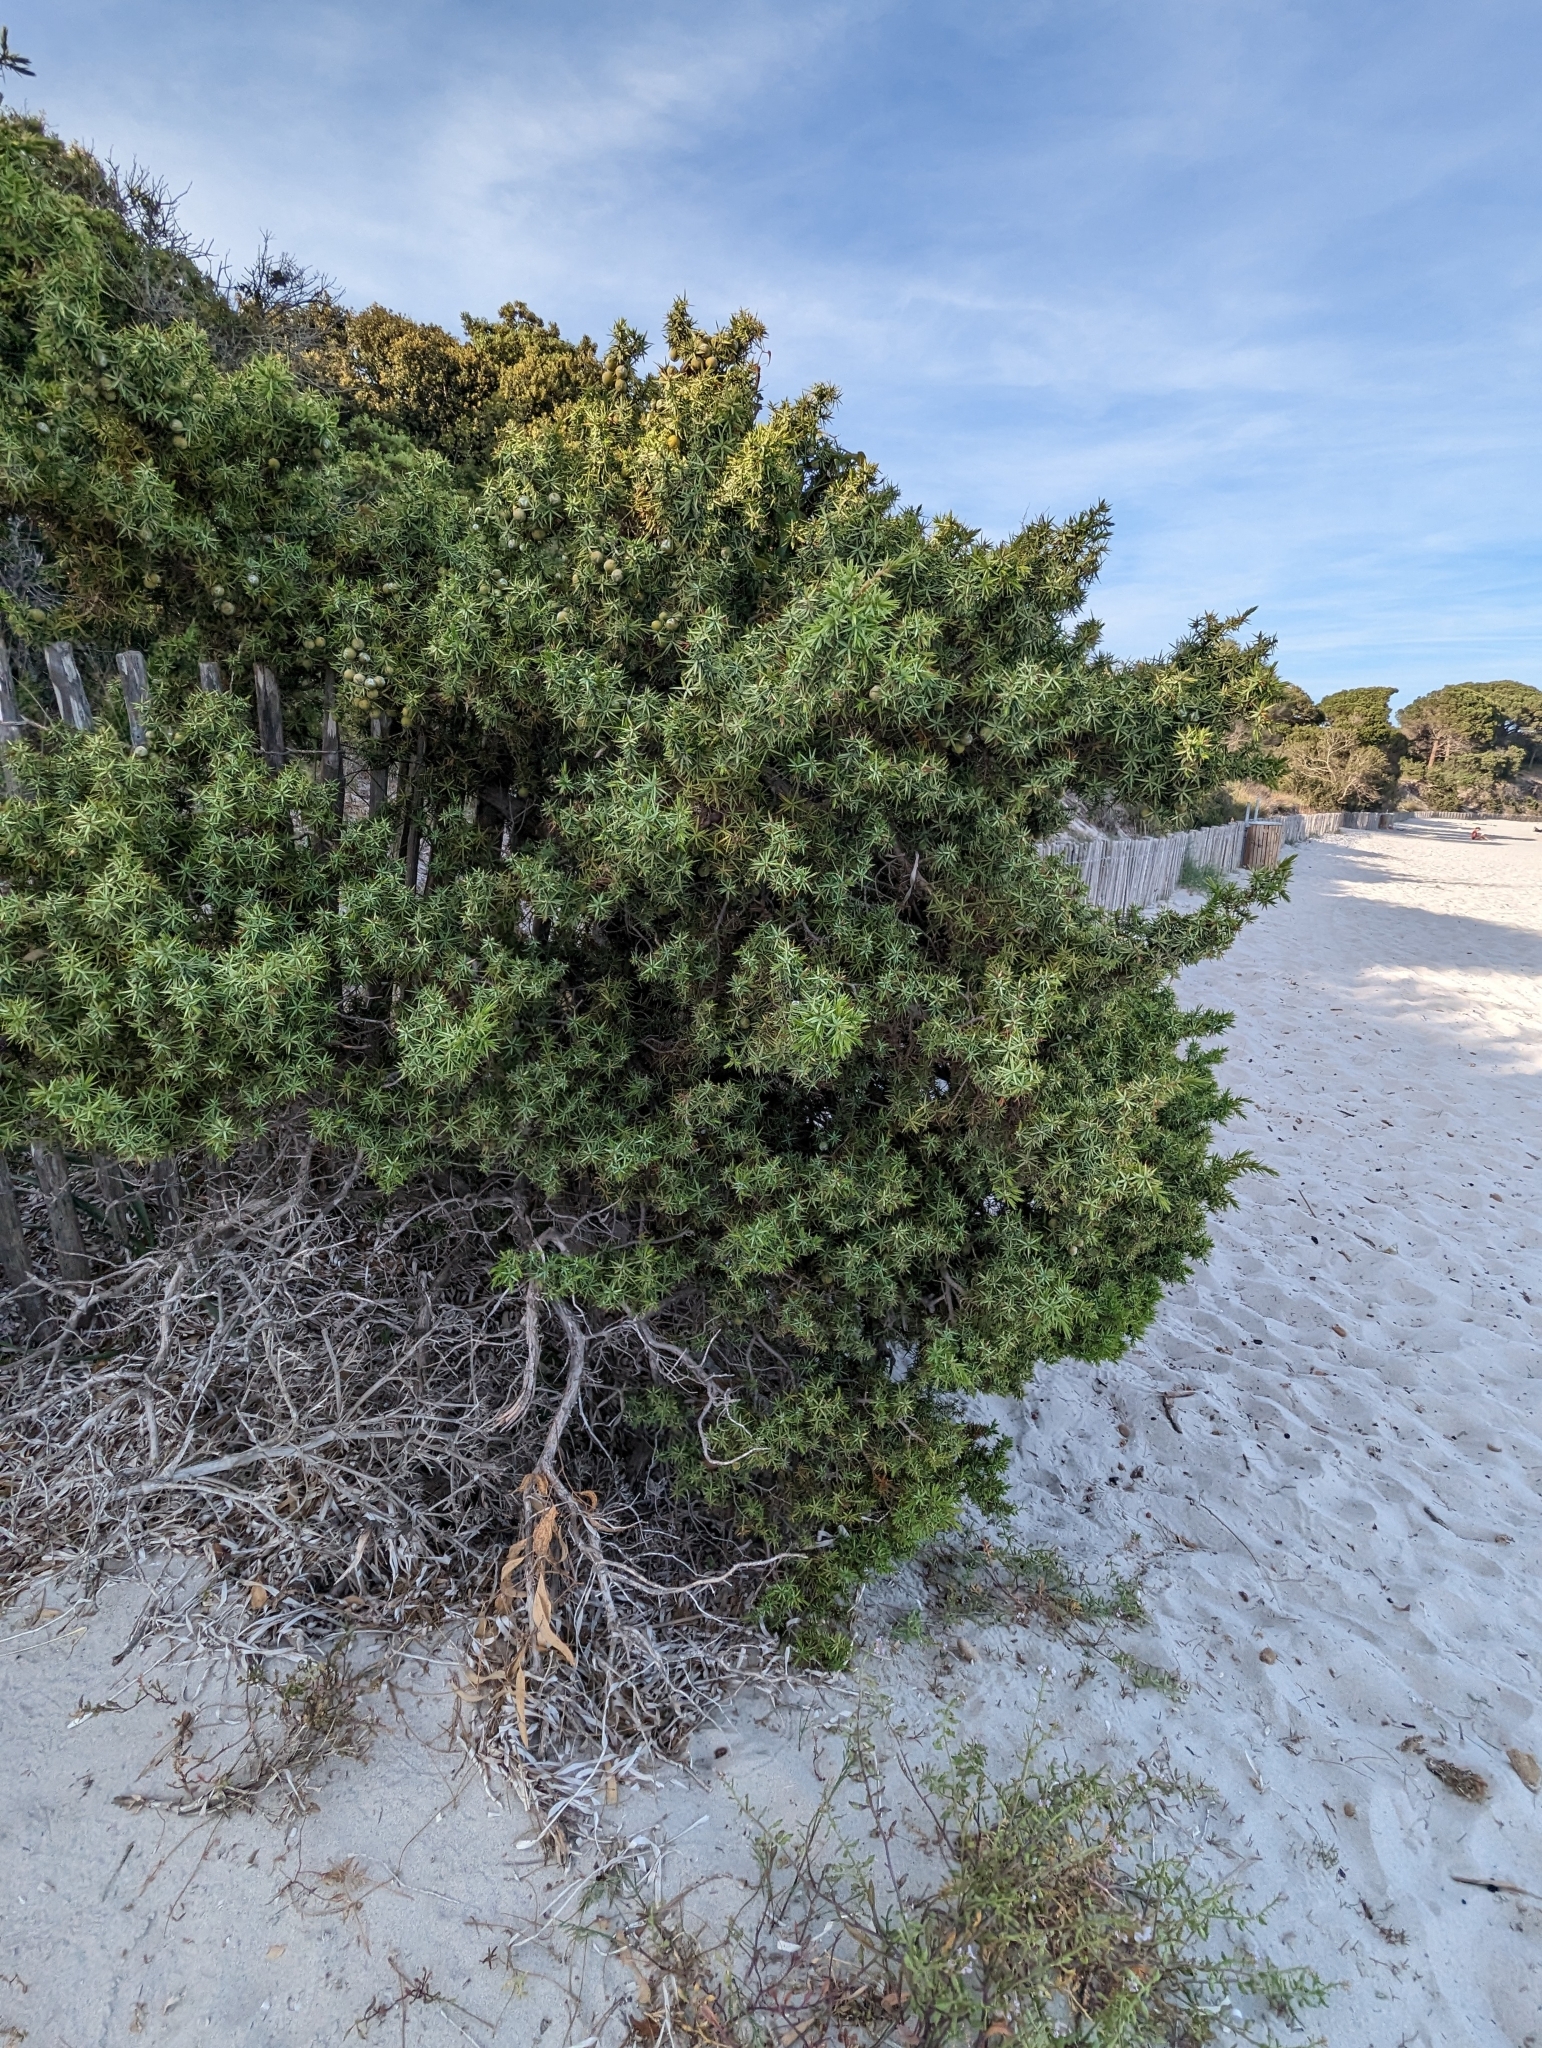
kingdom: Plantae
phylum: Tracheophyta
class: Pinopsida
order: Pinales
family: Cupressaceae
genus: Juniperus
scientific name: Juniperus oxycedrus
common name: Prickly juniper
